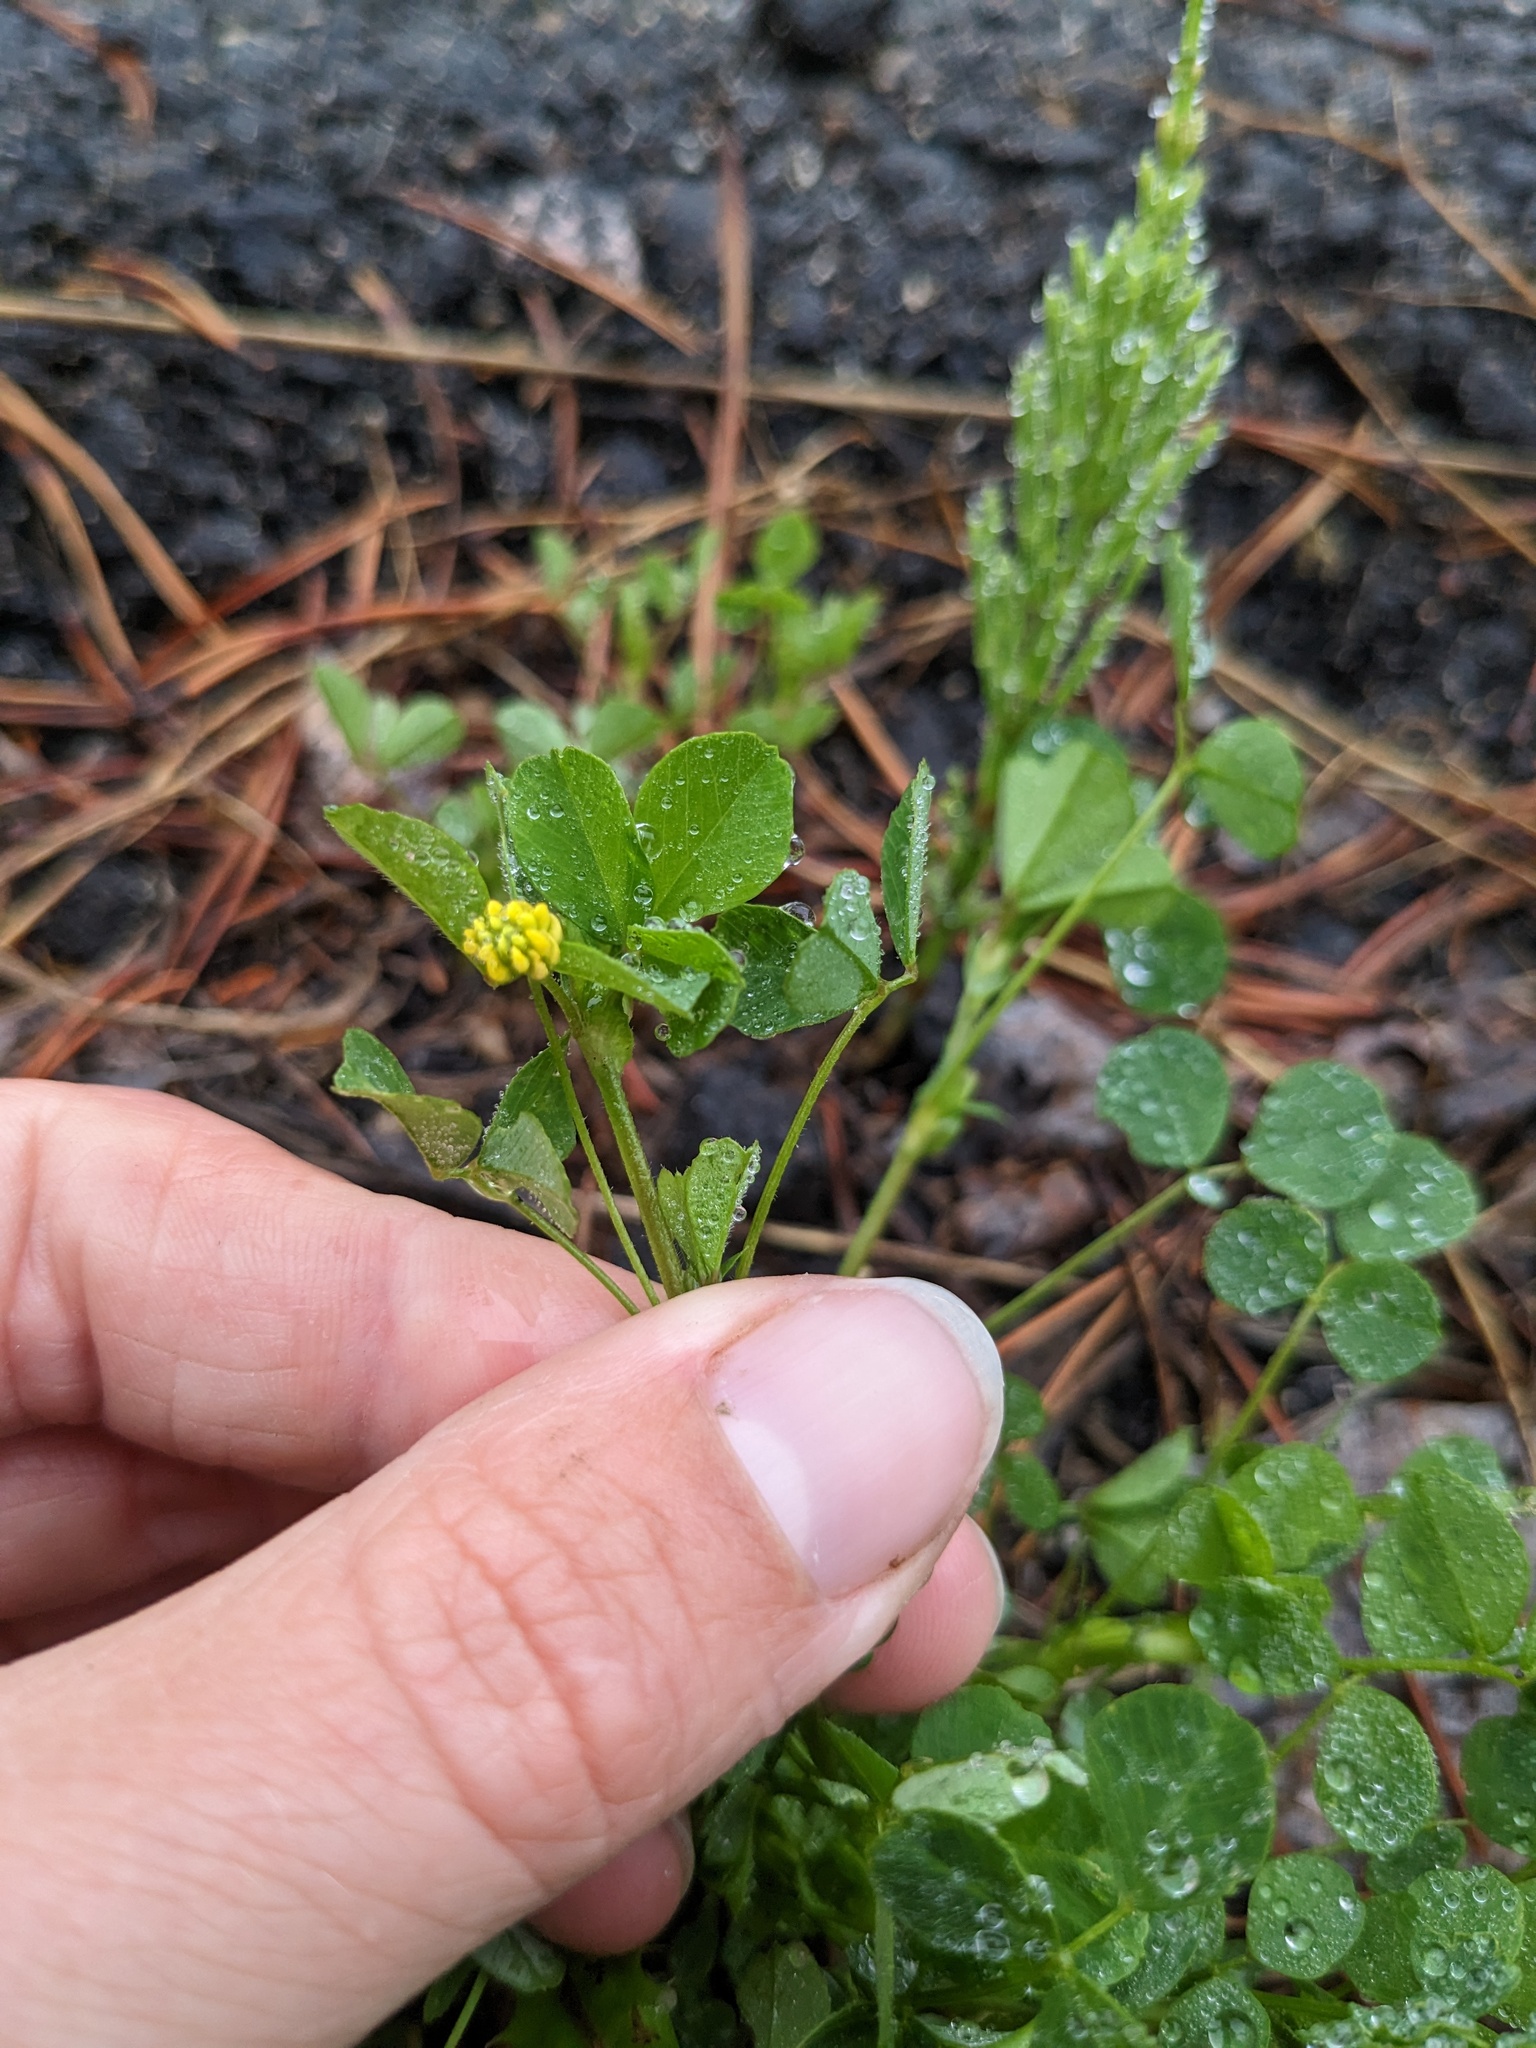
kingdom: Plantae
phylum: Tracheophyta
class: Magnoliopsida
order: Fabales
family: Fabaceae
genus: Medicago
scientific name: Medicago lupulina
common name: Black medick
